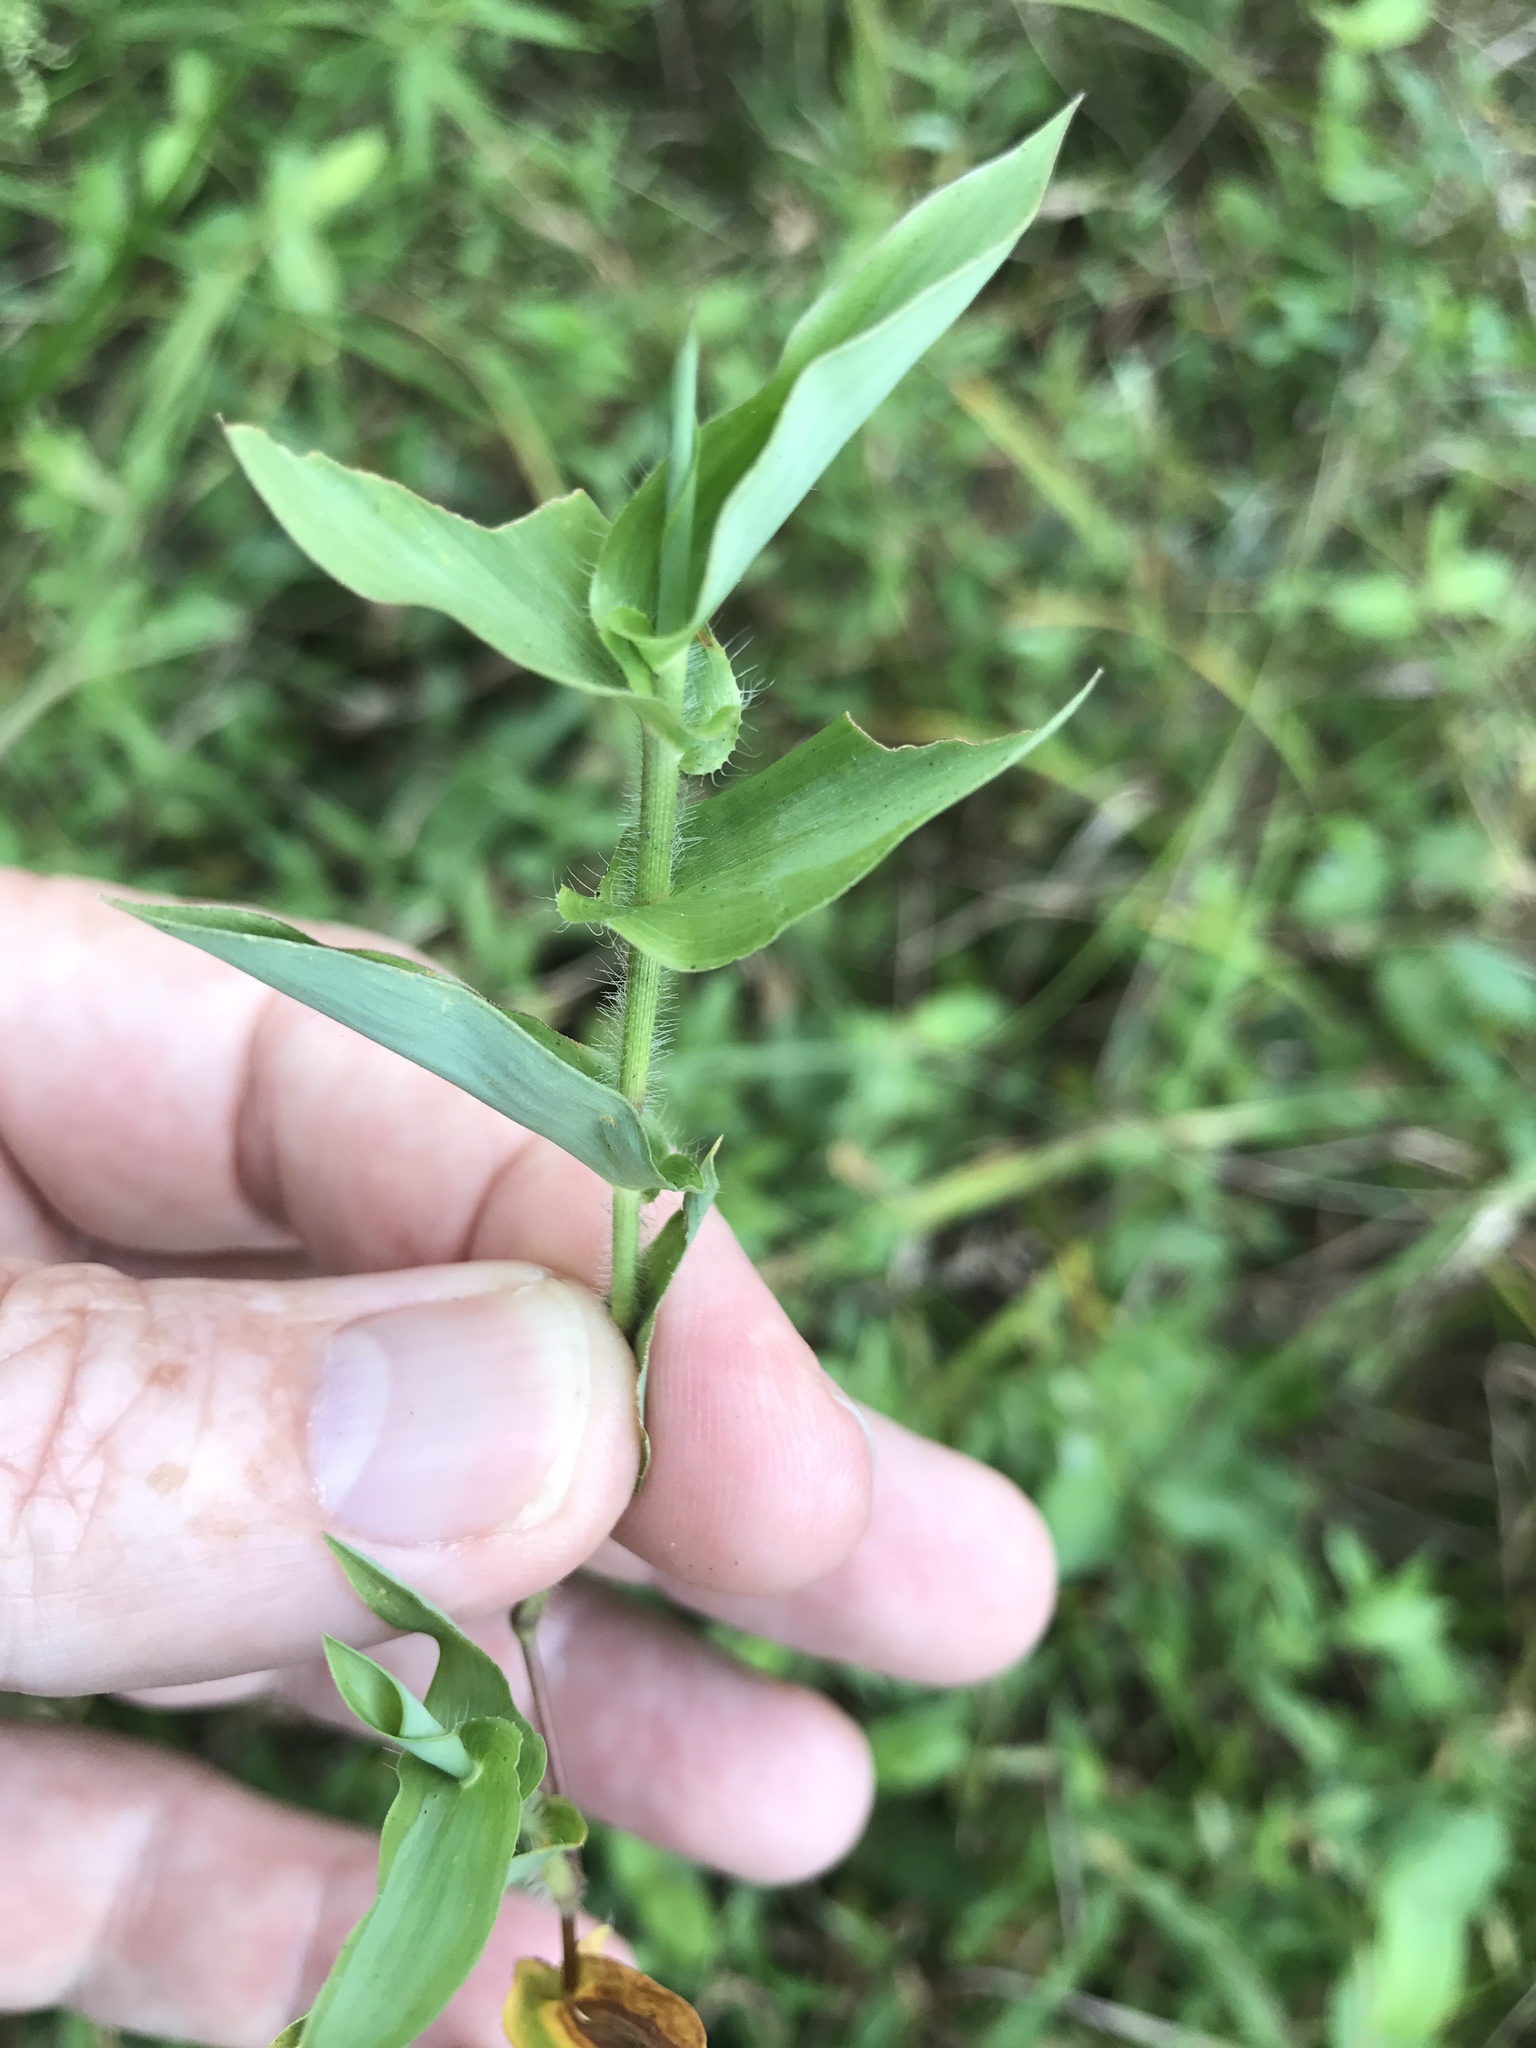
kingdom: Plantae
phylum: Tracheophyta
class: Liliopsida
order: Poales
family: Poaceae
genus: Arthraxon
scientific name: Arthraxon hispidus
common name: Small carpgrass
